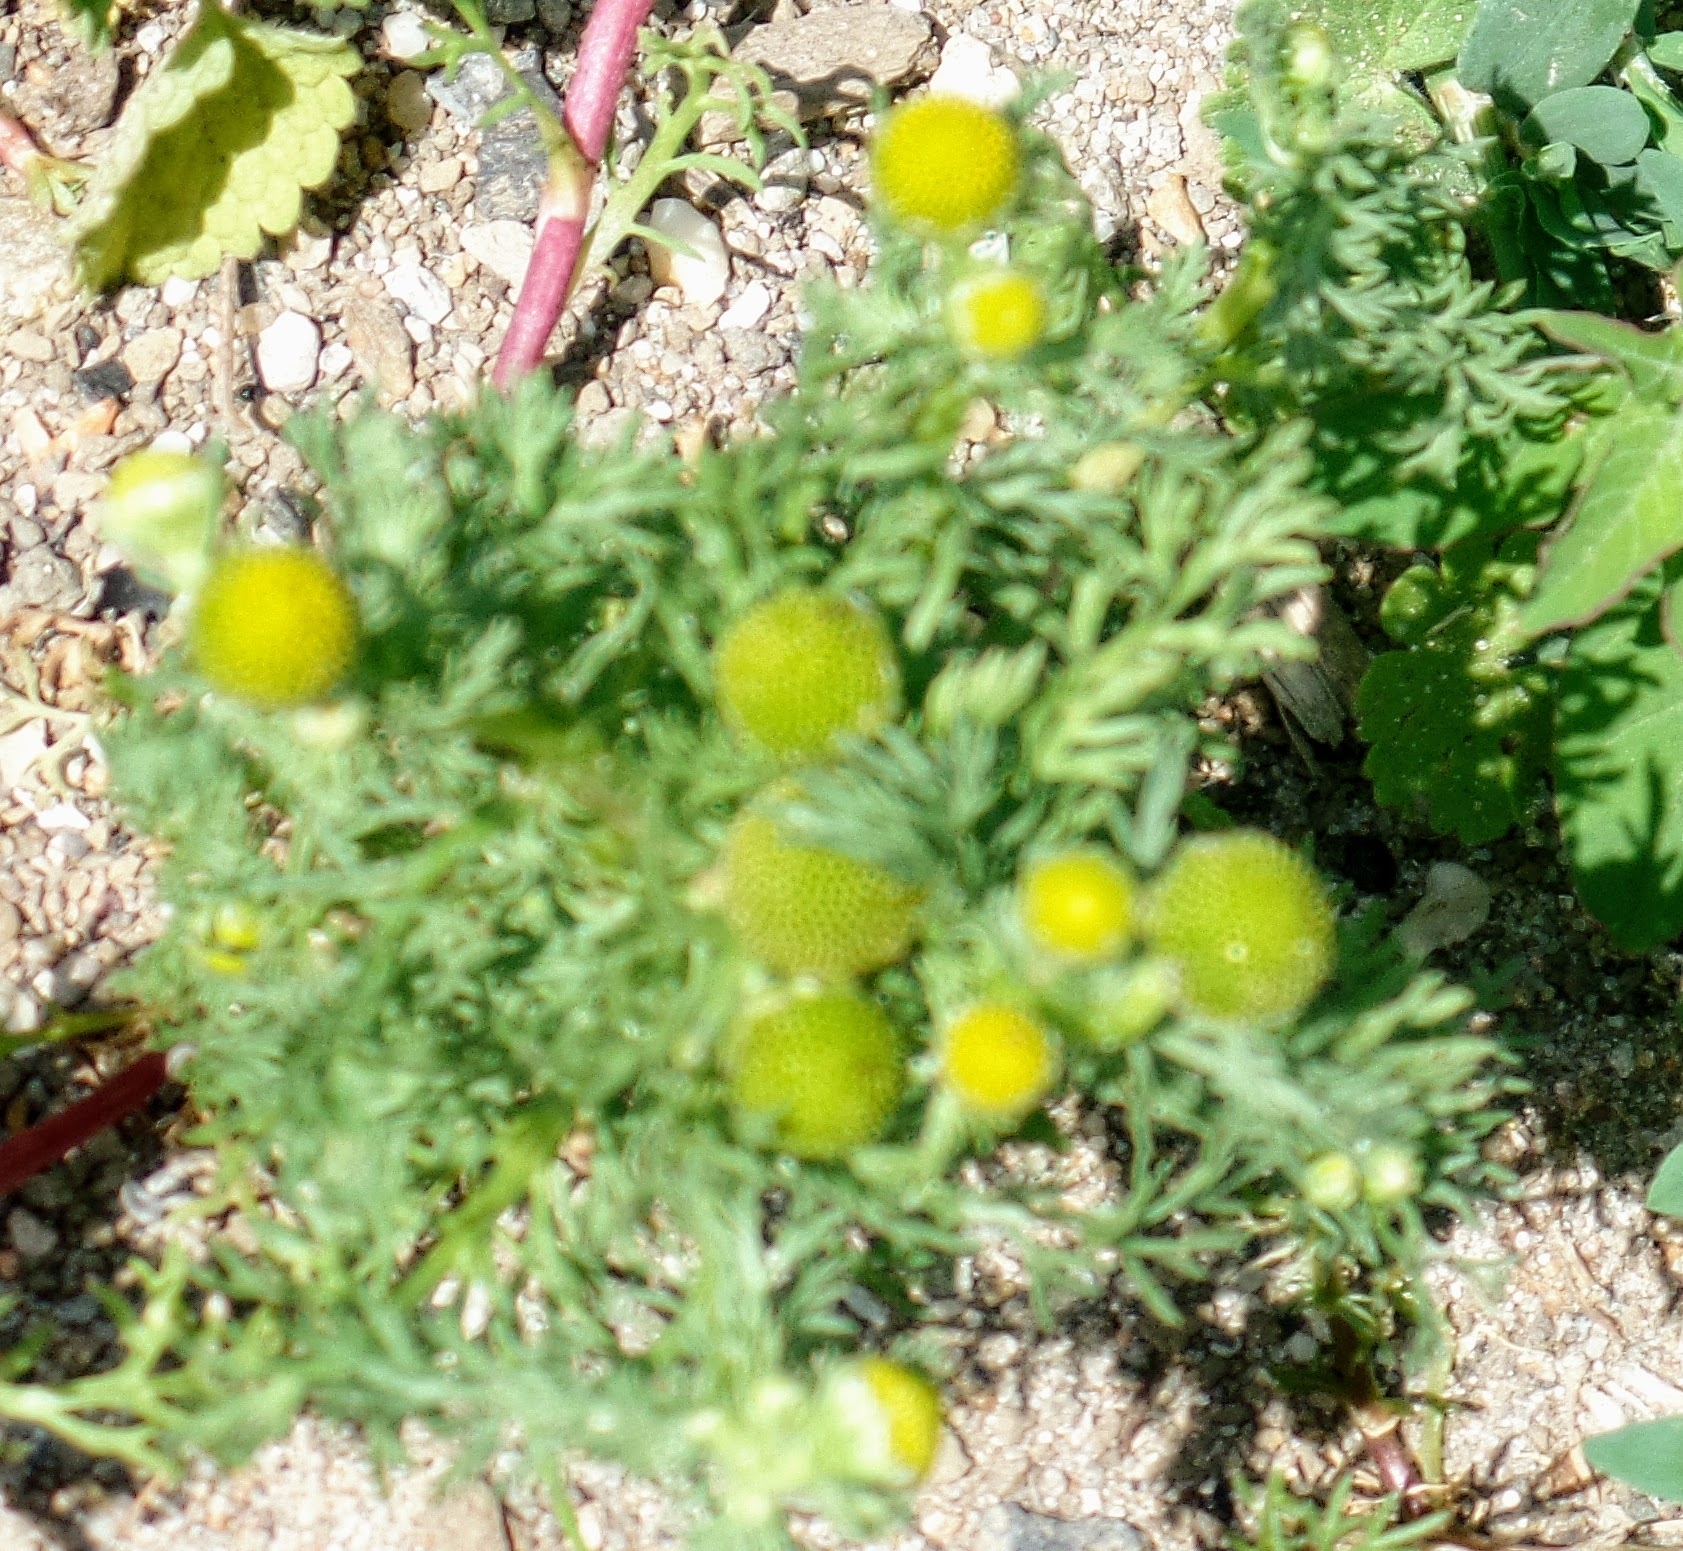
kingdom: Plantae
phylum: Tracheophyta
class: Magnoliopsida
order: Asterales
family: Asteraceae
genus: Matricaria
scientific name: Matricaria discoidea
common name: Disc mayweed
